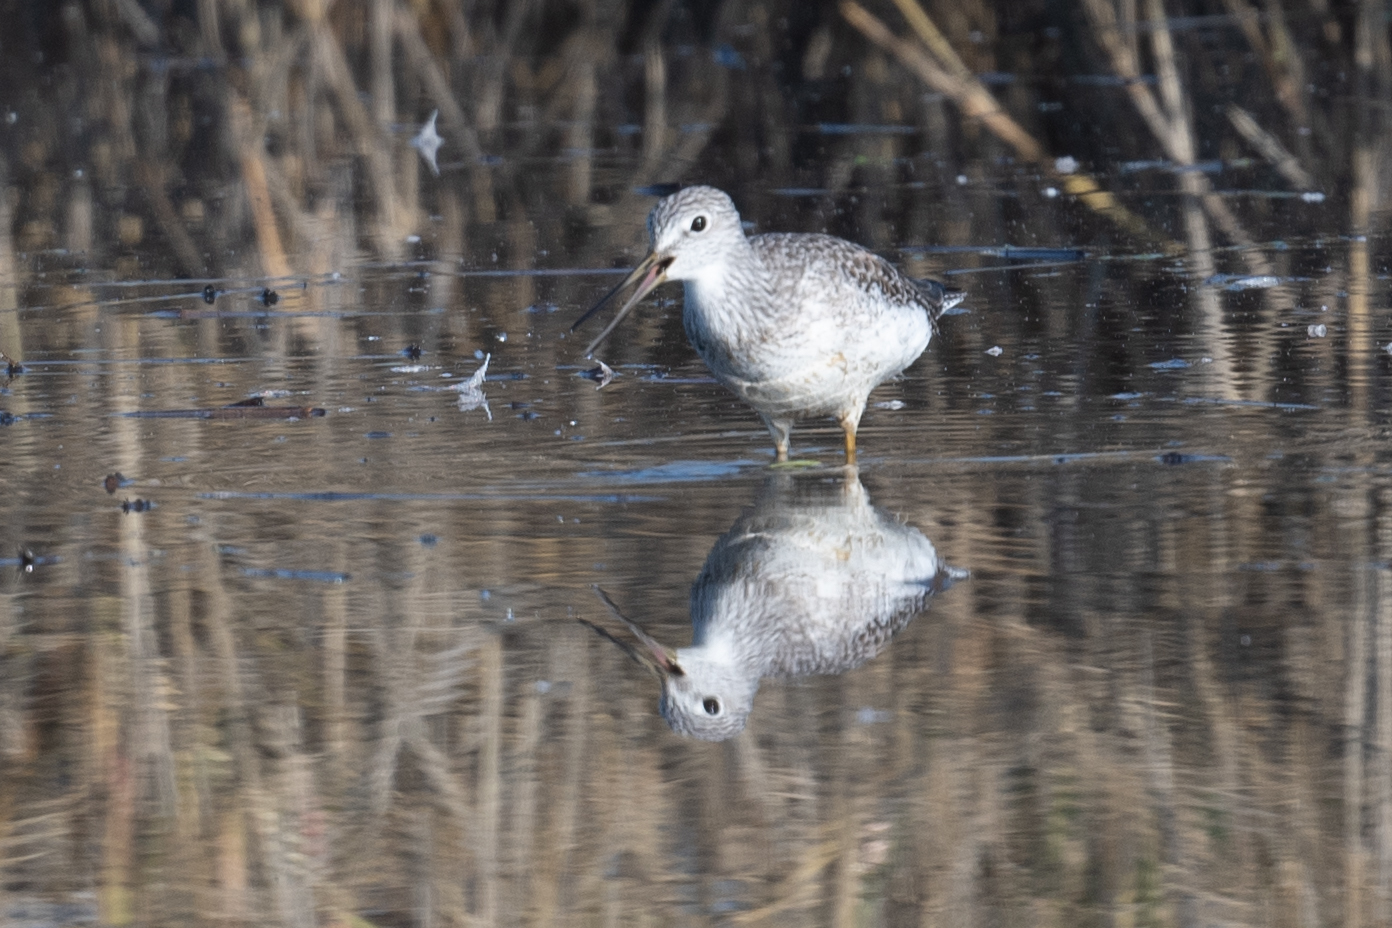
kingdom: Animalia
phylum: Chordata
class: Aves
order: Charadriiformes
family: Scolopacidae
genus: Tringa
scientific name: Tringa melanoleuca
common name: Greater yellowlegs
